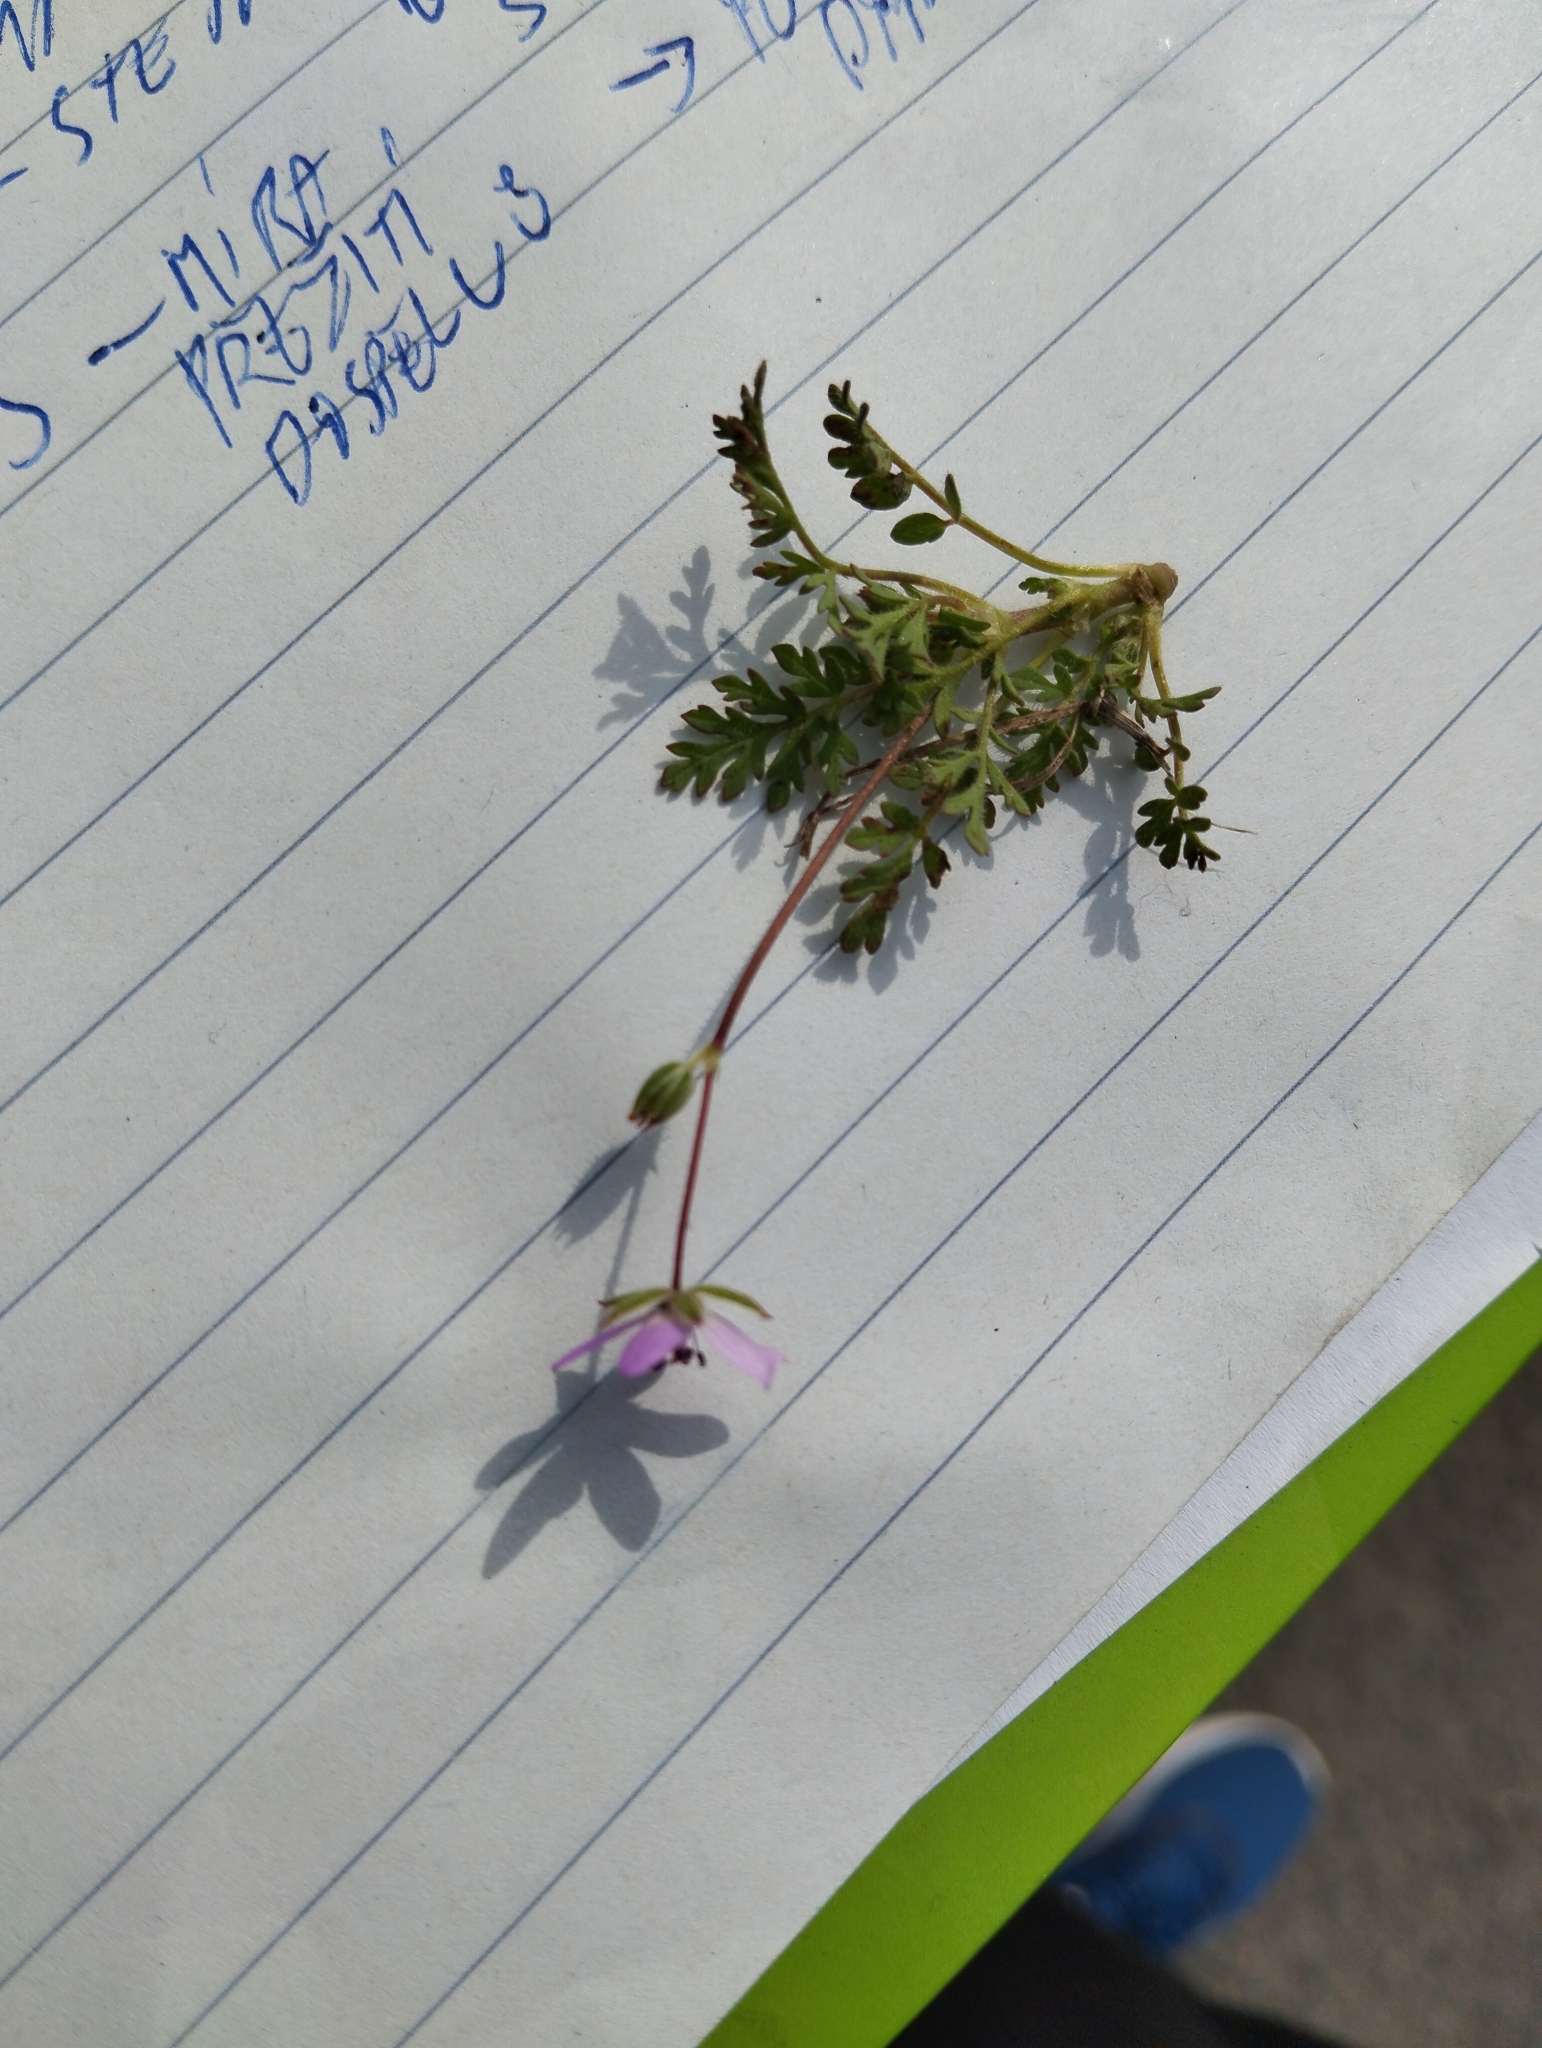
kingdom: Plantae
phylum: Tracheophyta
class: Magnoliopsida
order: Geraniales
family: Geraniaceae
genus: Erodium
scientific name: Erodium cicutarium
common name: Common stork's-bill
